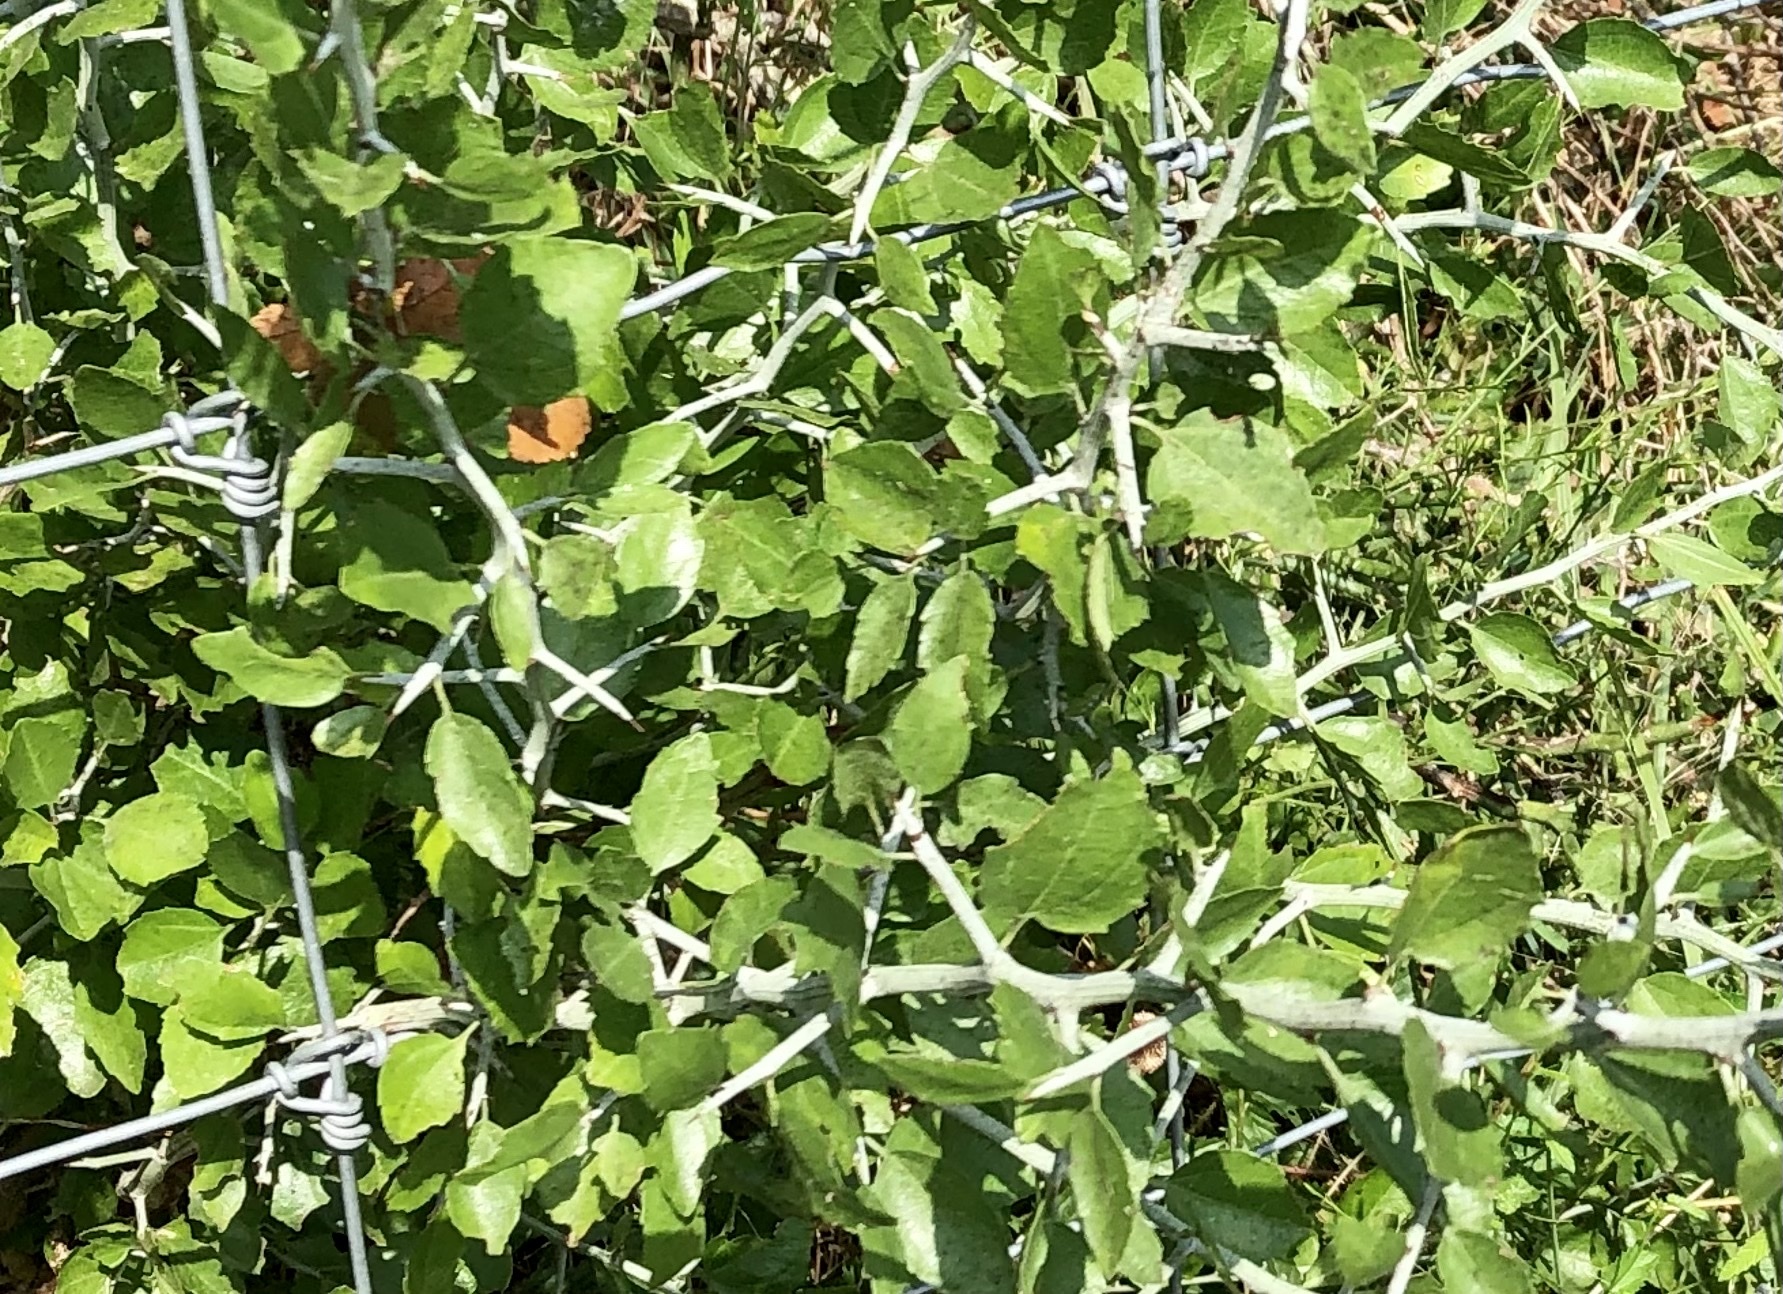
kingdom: Plantae
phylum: Tracheophyta
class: Magnoliopsida
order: Rosales
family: Rhamnaceae
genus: Sarcomphalus
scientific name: Sarcomphalus obtusifolius
